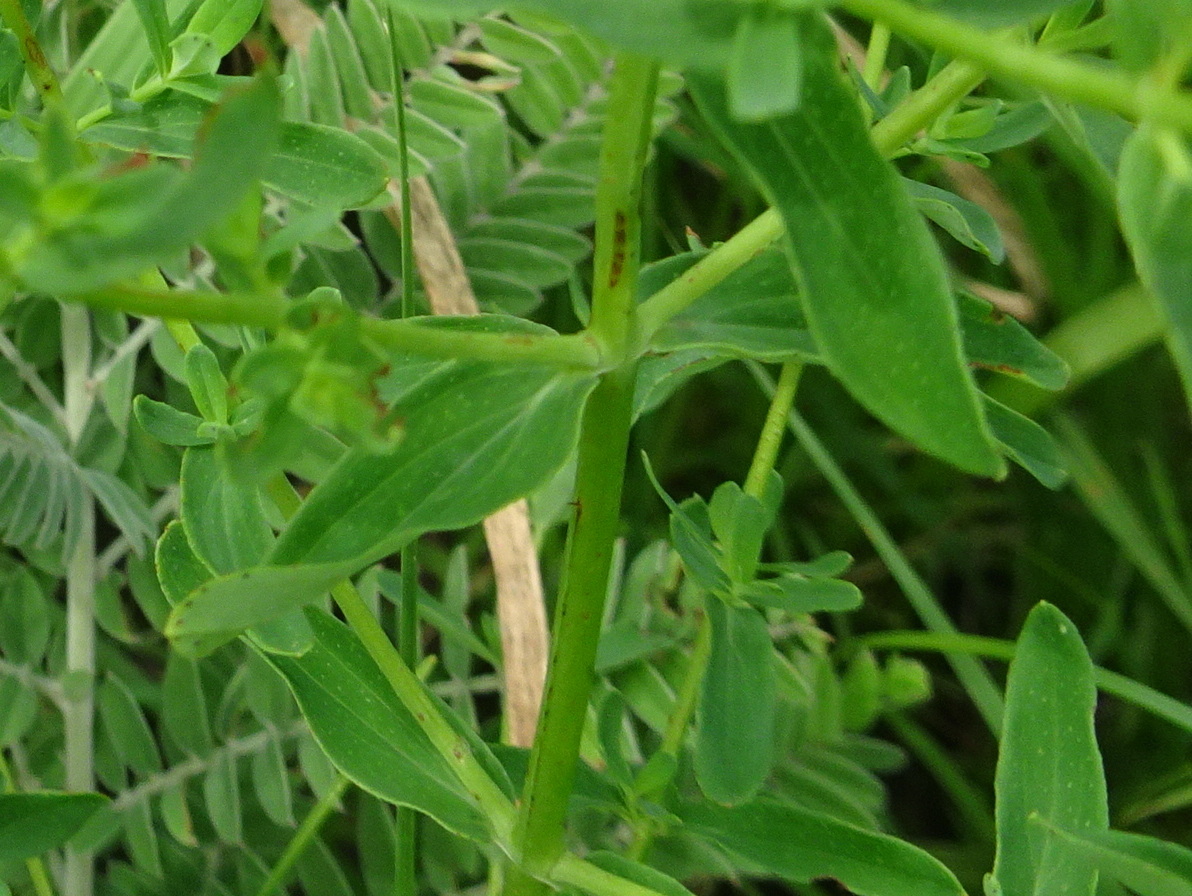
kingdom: Plantae
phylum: Tracheophyta
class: Magnoliopsida
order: Malpighiales
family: Hypericaceae
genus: Hypericum
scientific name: Hypericum perforatum
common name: Common st. johnswort
